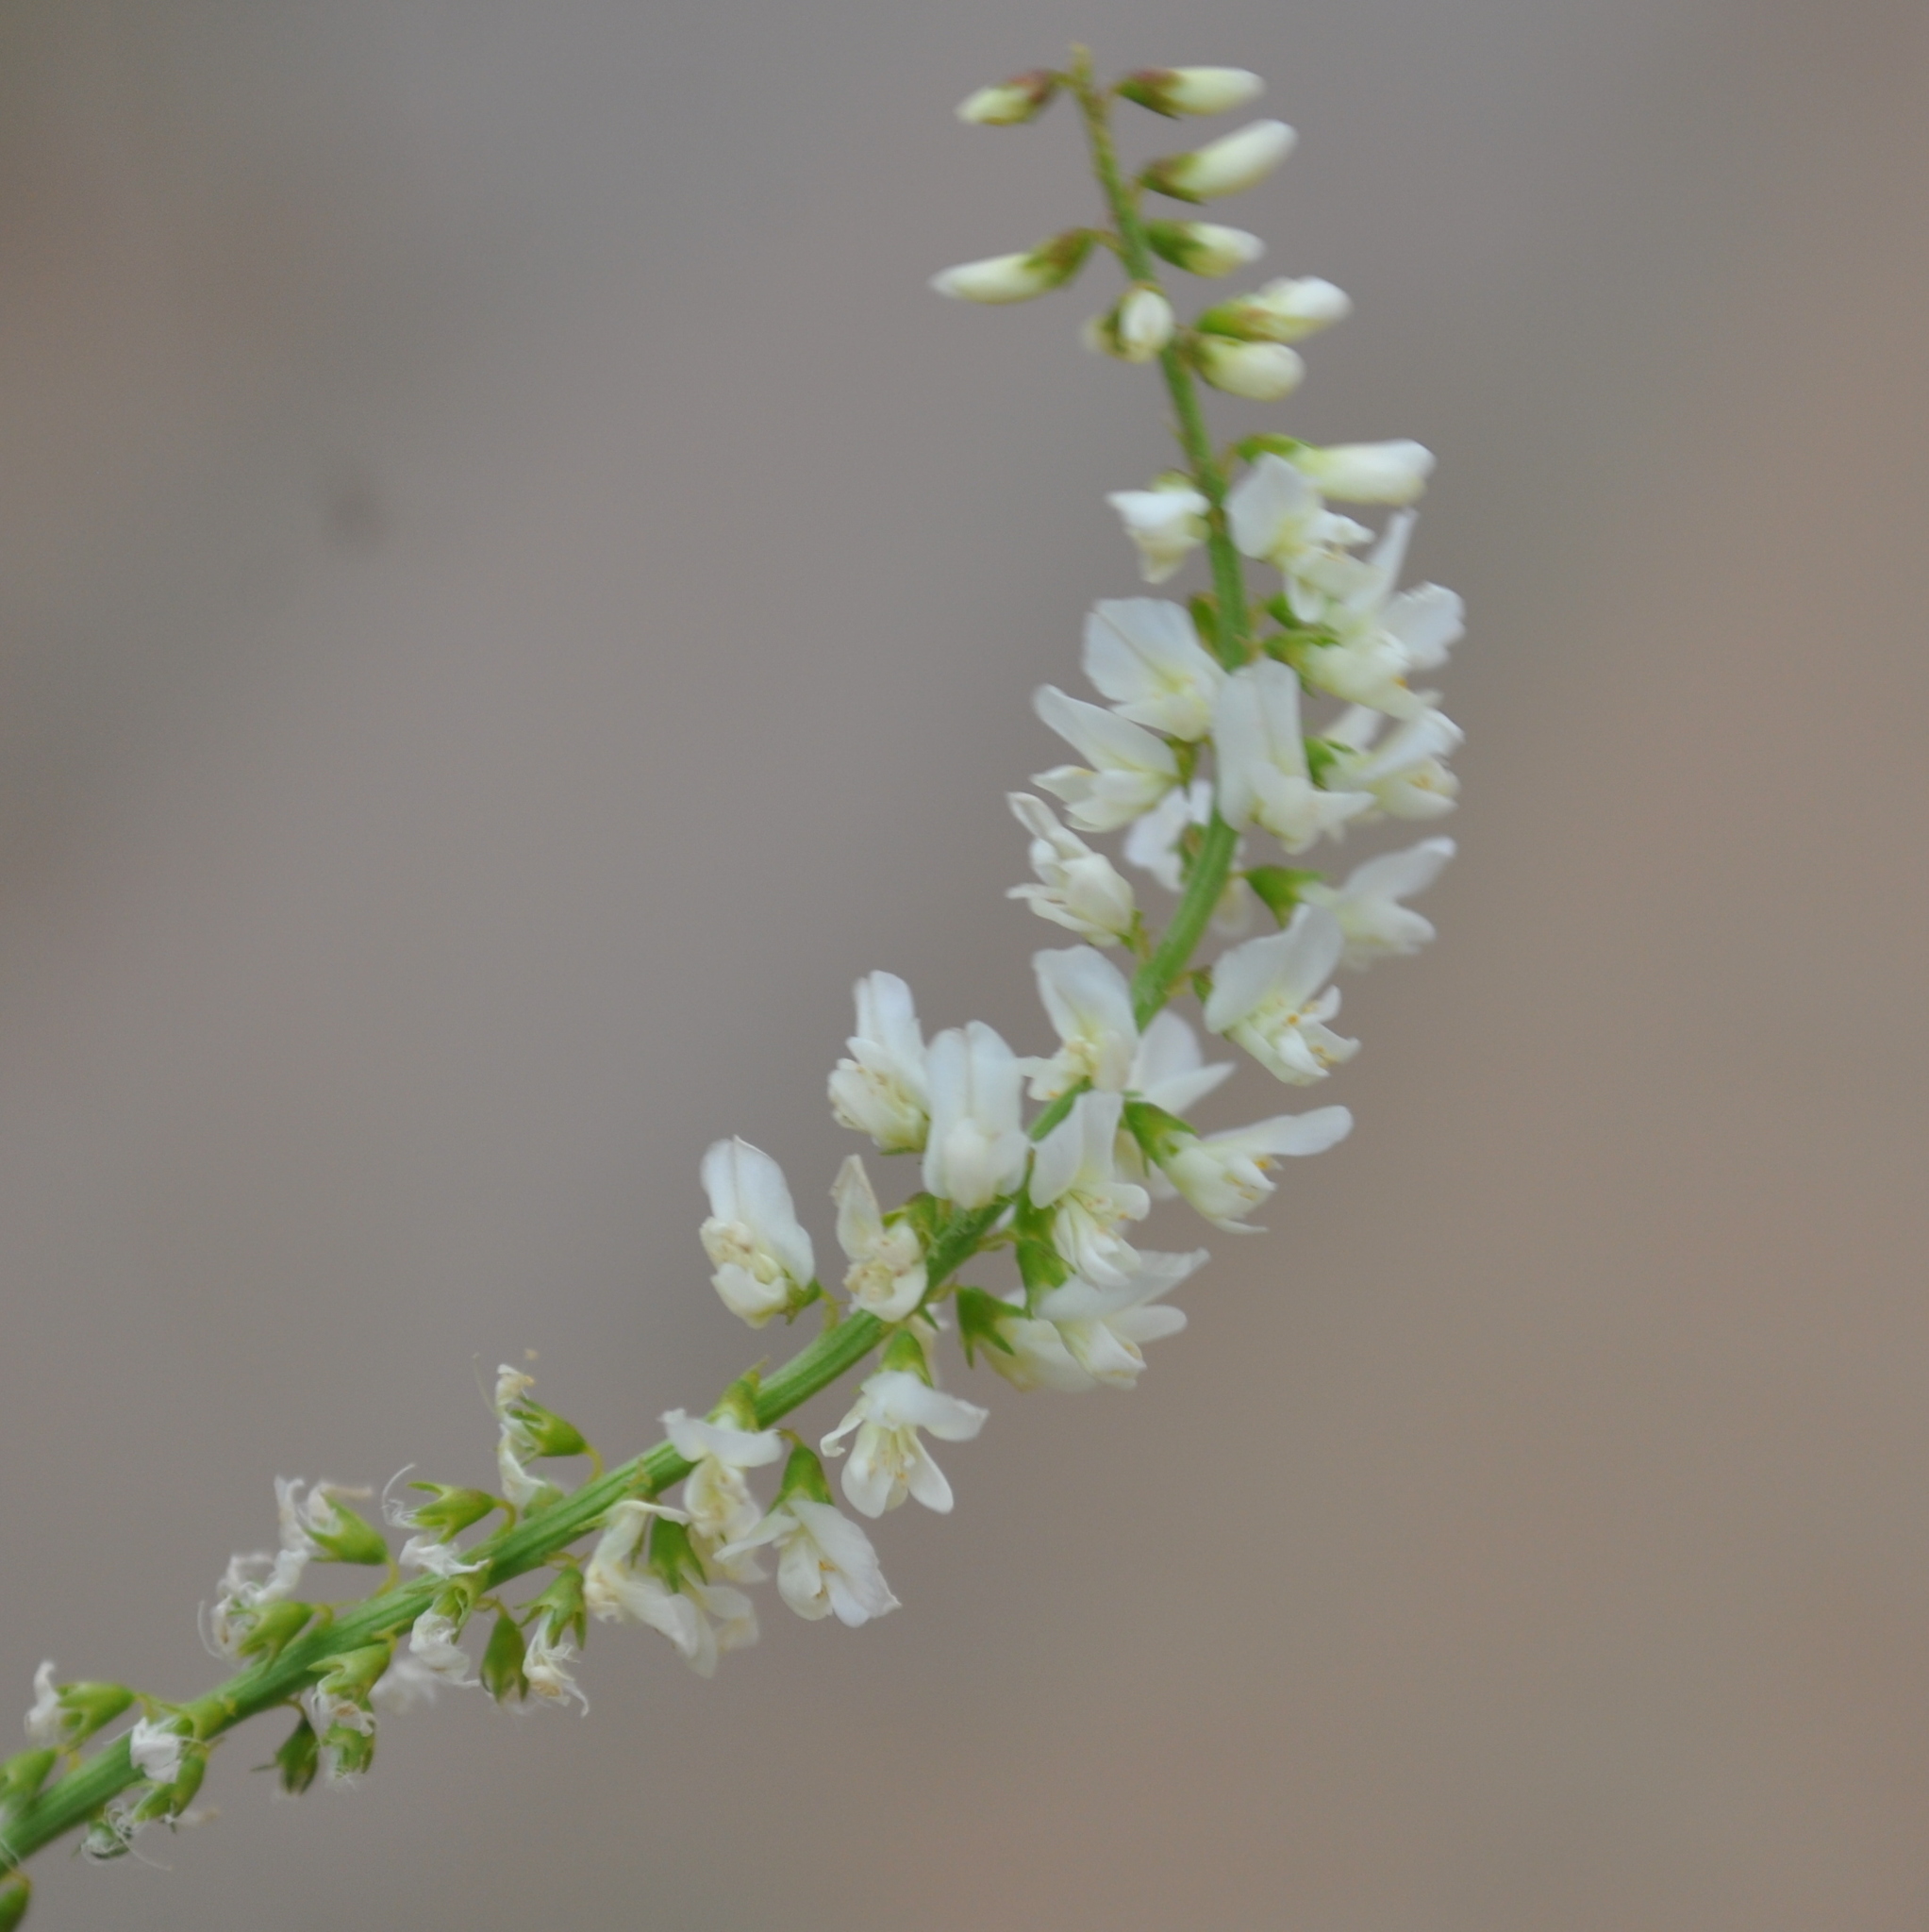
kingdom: Plantae
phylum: Tracheophyta
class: Magnoliopsida
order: Fabales
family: Fabaceae
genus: Melilotus
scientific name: Melilotus albus
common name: White melilot
